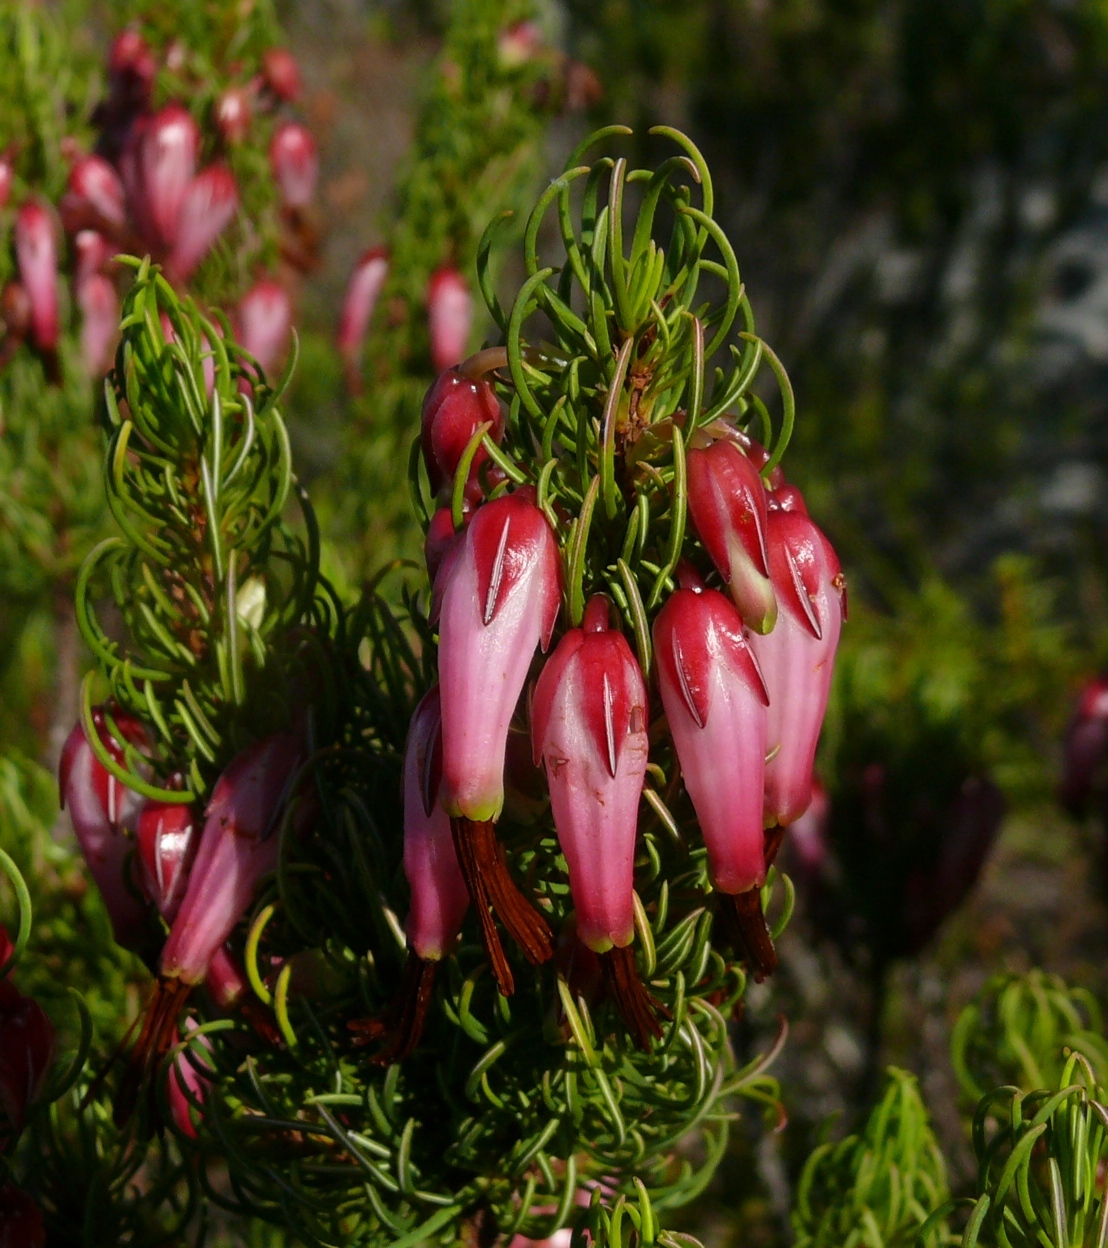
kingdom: Plantae
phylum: Tracheophyta
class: Magnoliopsida
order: Ericales
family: Ericaceae
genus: Erica
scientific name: Erica plukenetii
